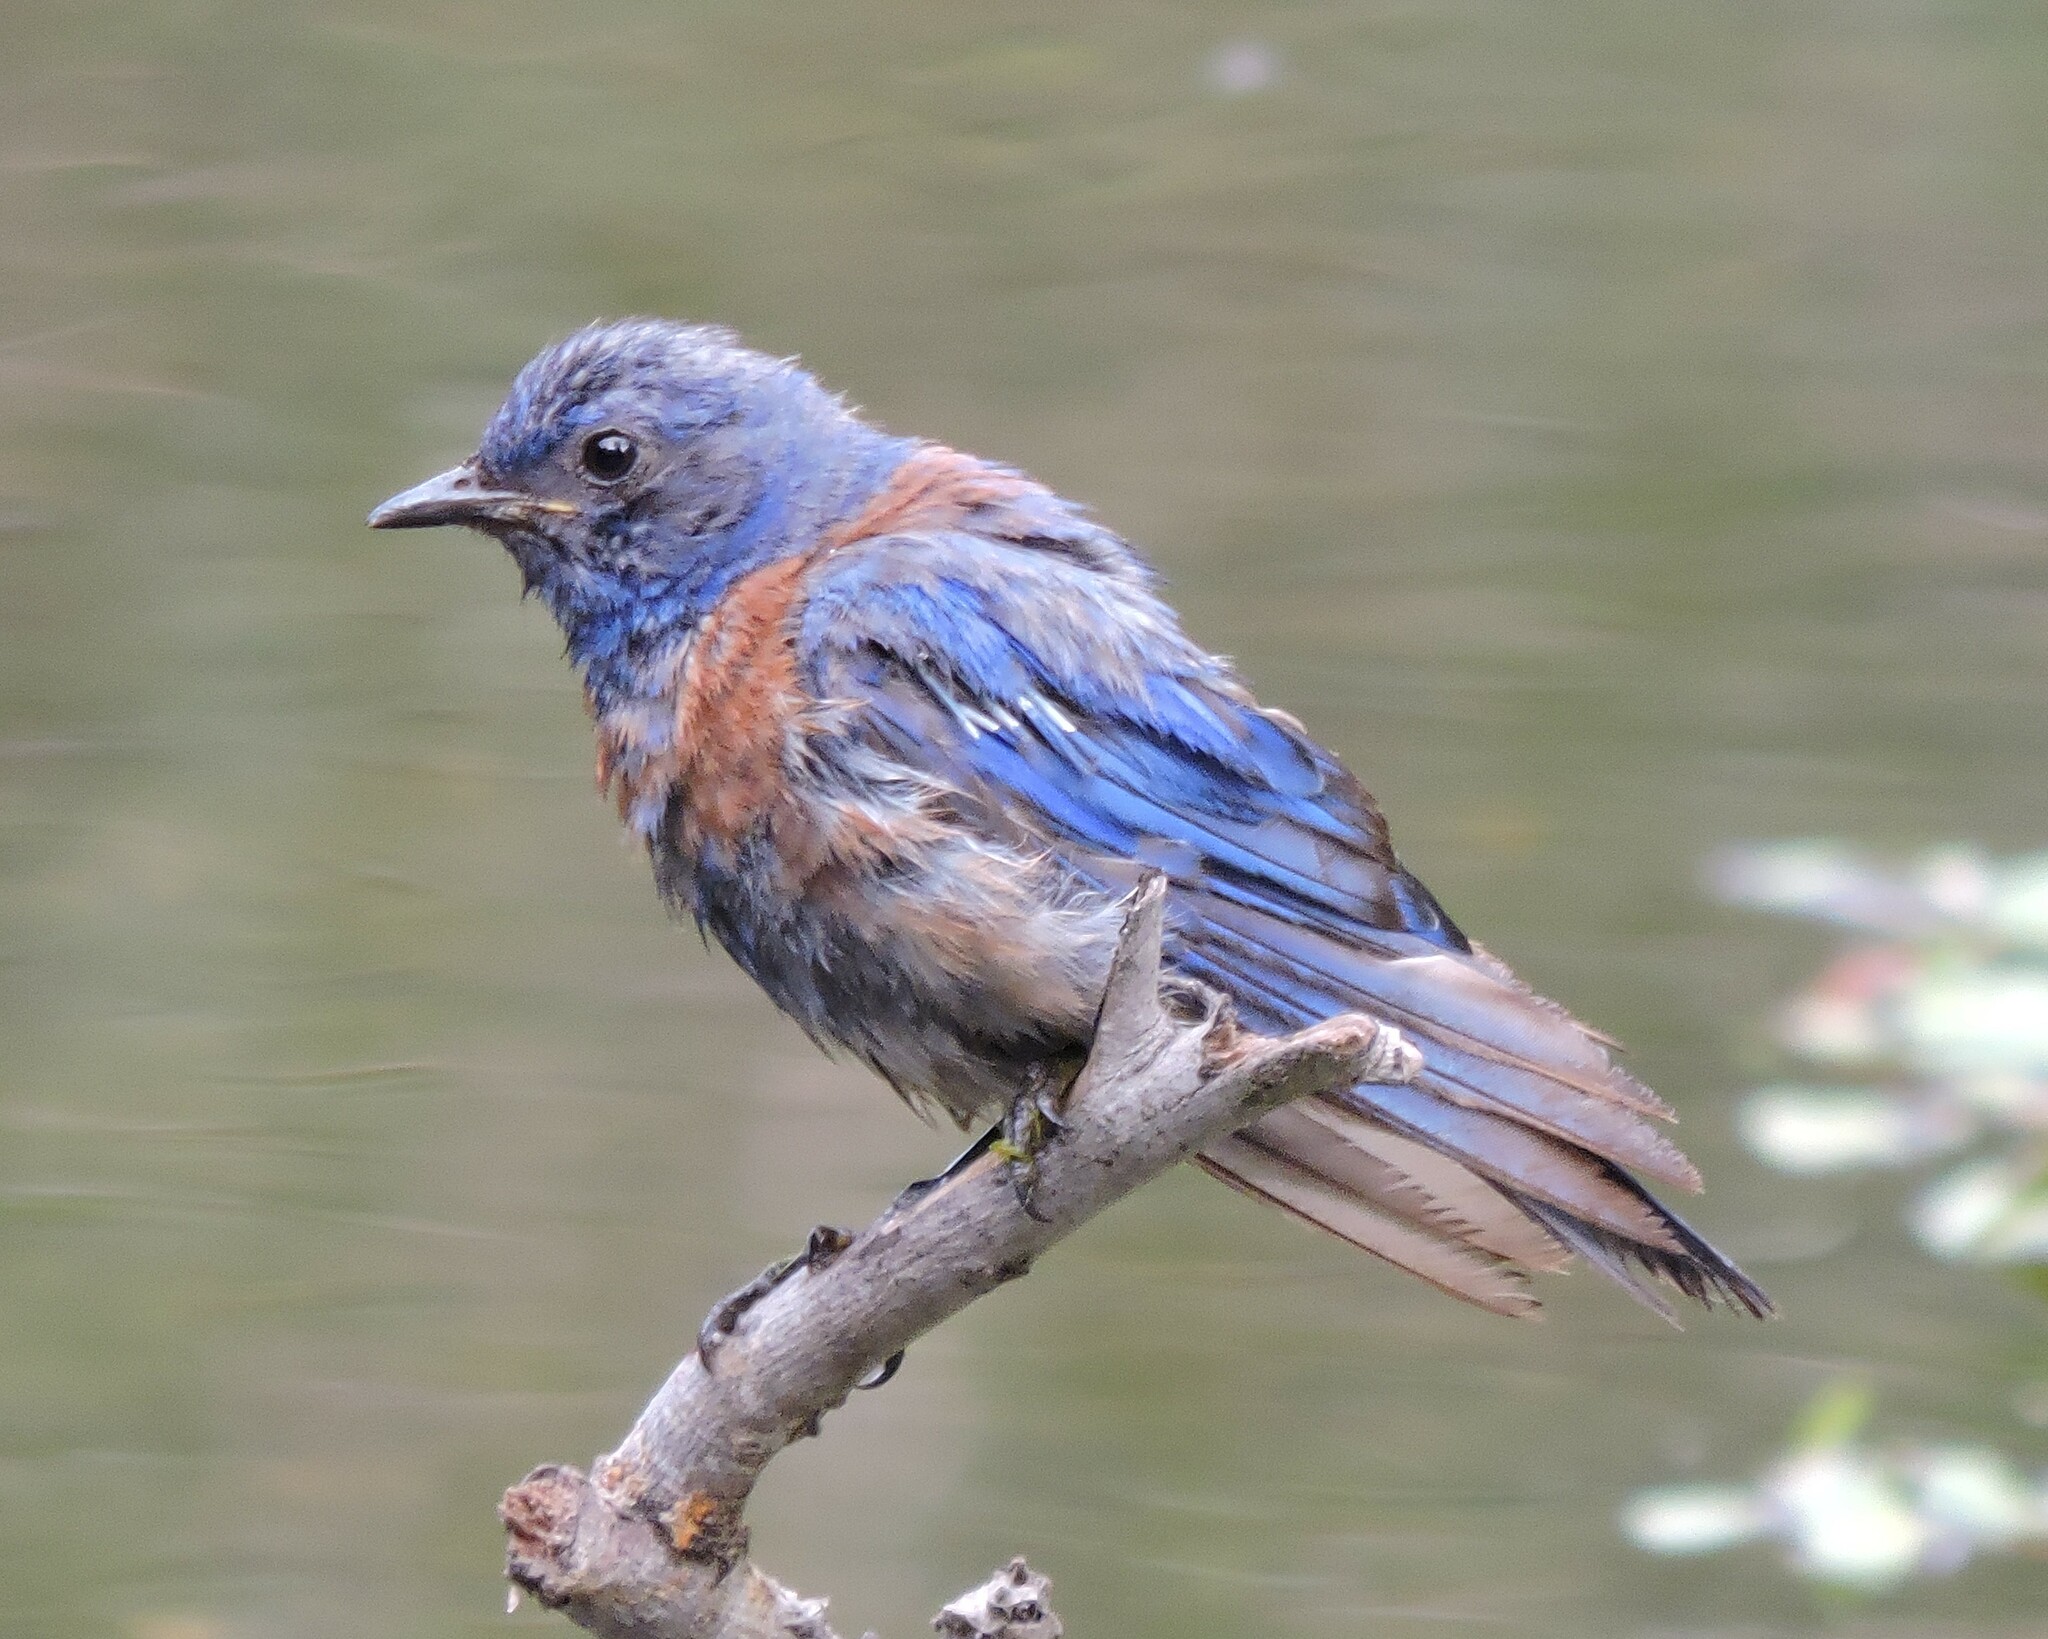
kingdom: Animalia
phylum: Chordata
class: Aves
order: Passeriformes
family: Turdidae
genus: Sialia
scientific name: Sialia mexicana
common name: Western bluebird
